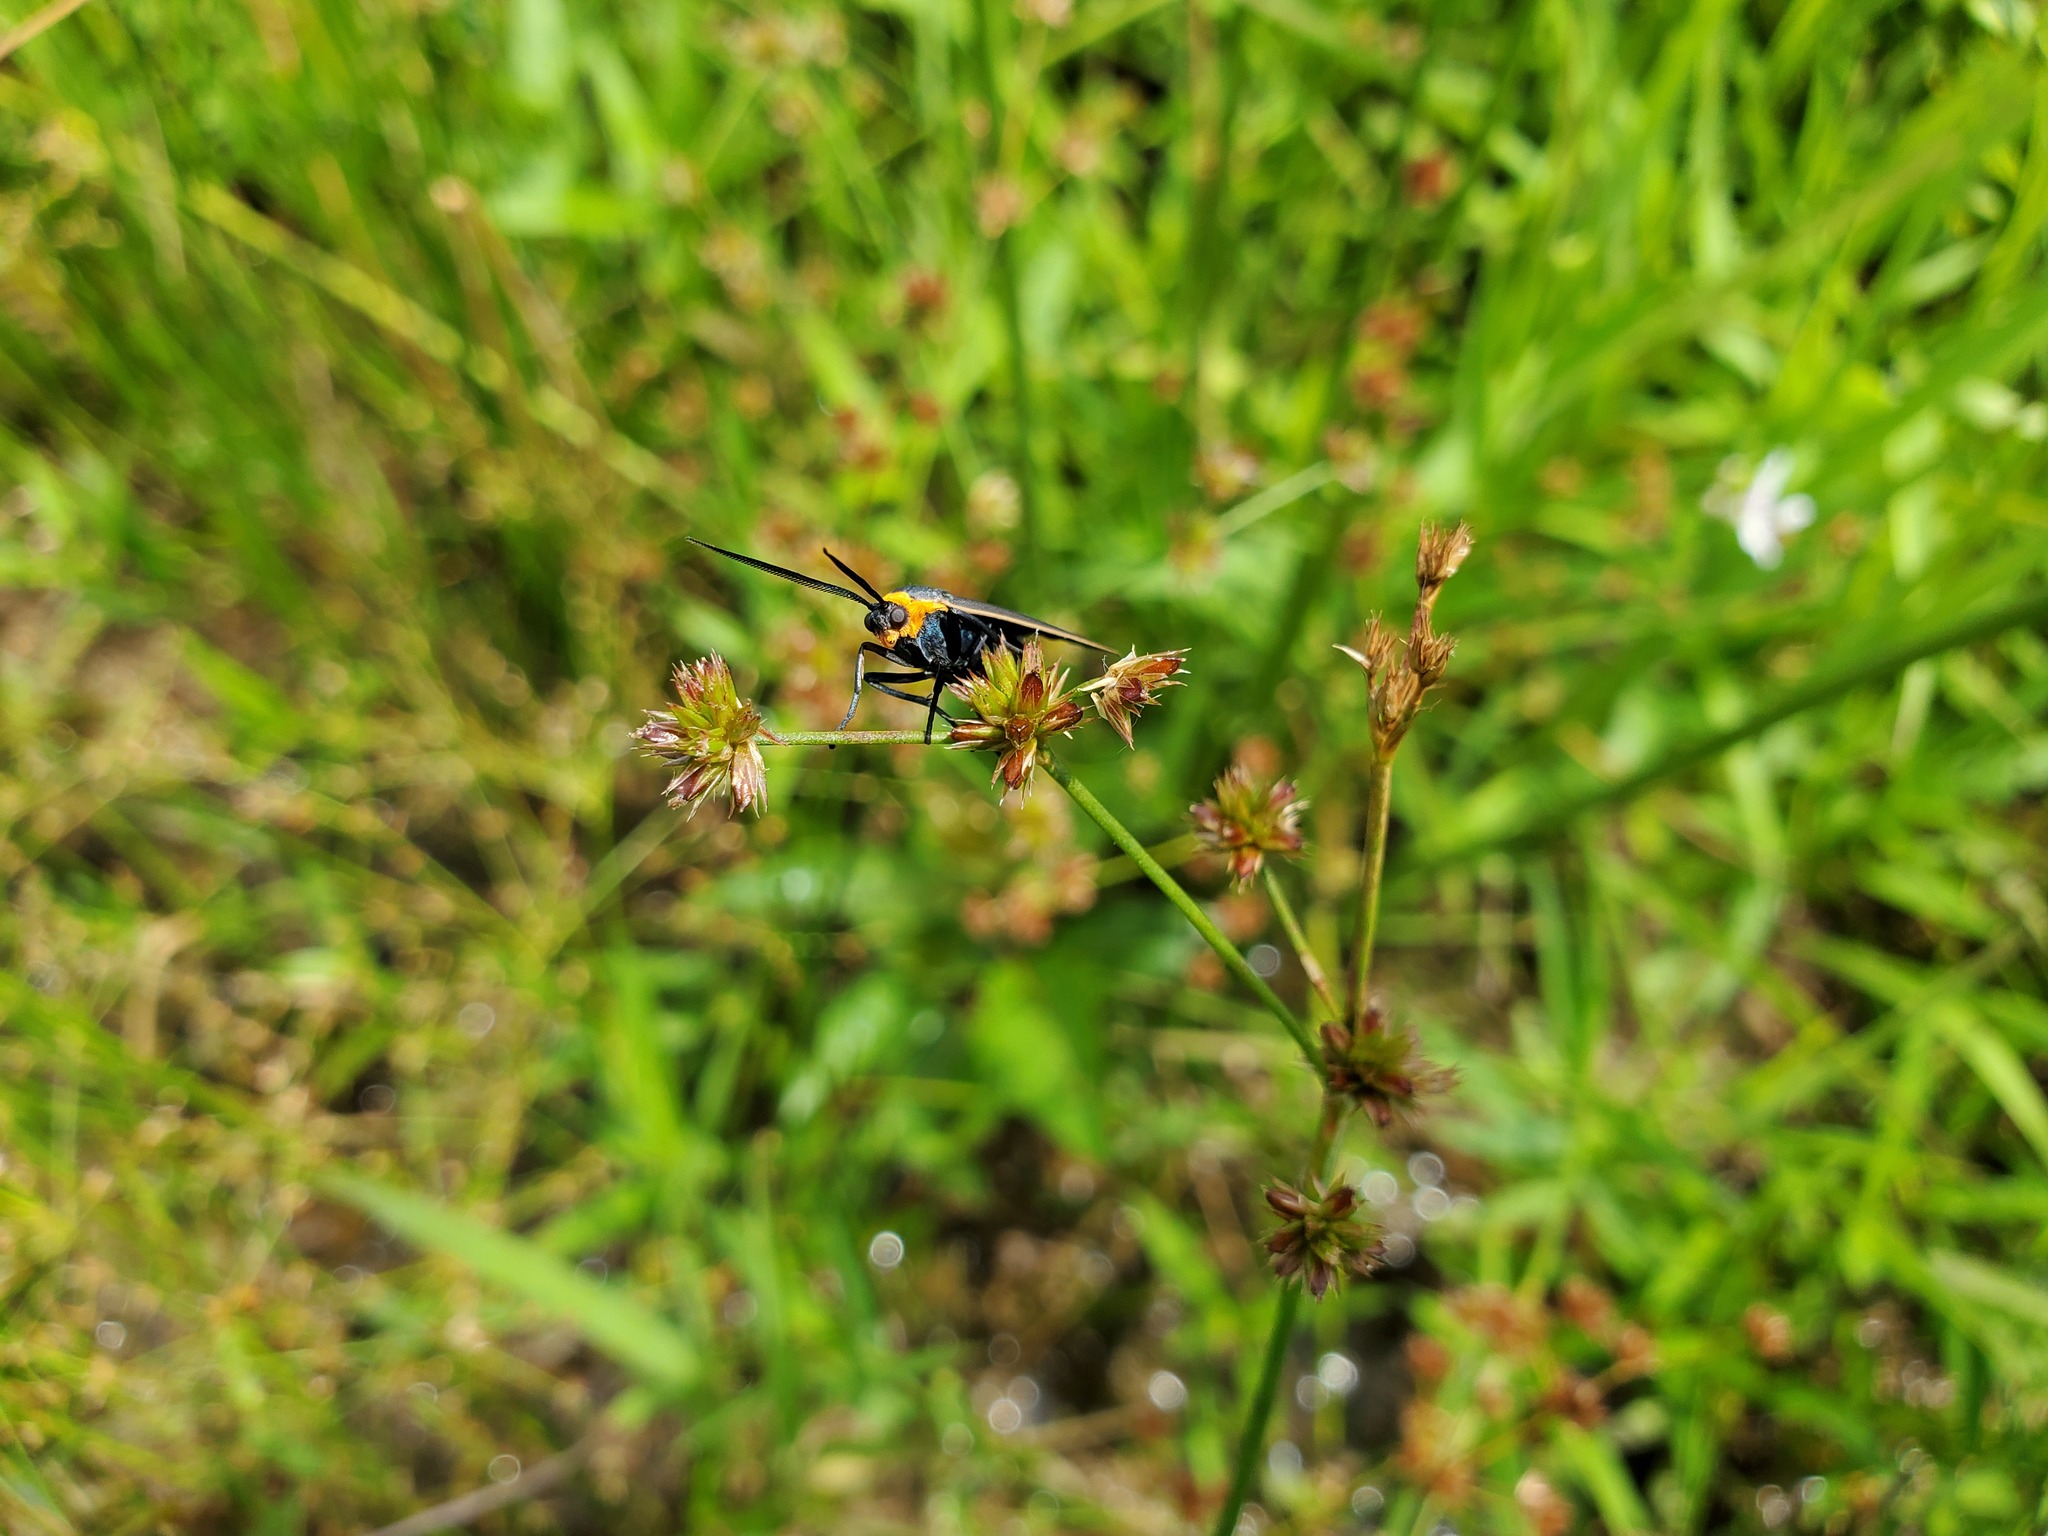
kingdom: Animalia
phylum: Arthropoda
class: Insecta
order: Lepidoptera
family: Erebidae
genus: Cisseps
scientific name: Cisseps fulvicollis
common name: Yellow-collared scape moth
